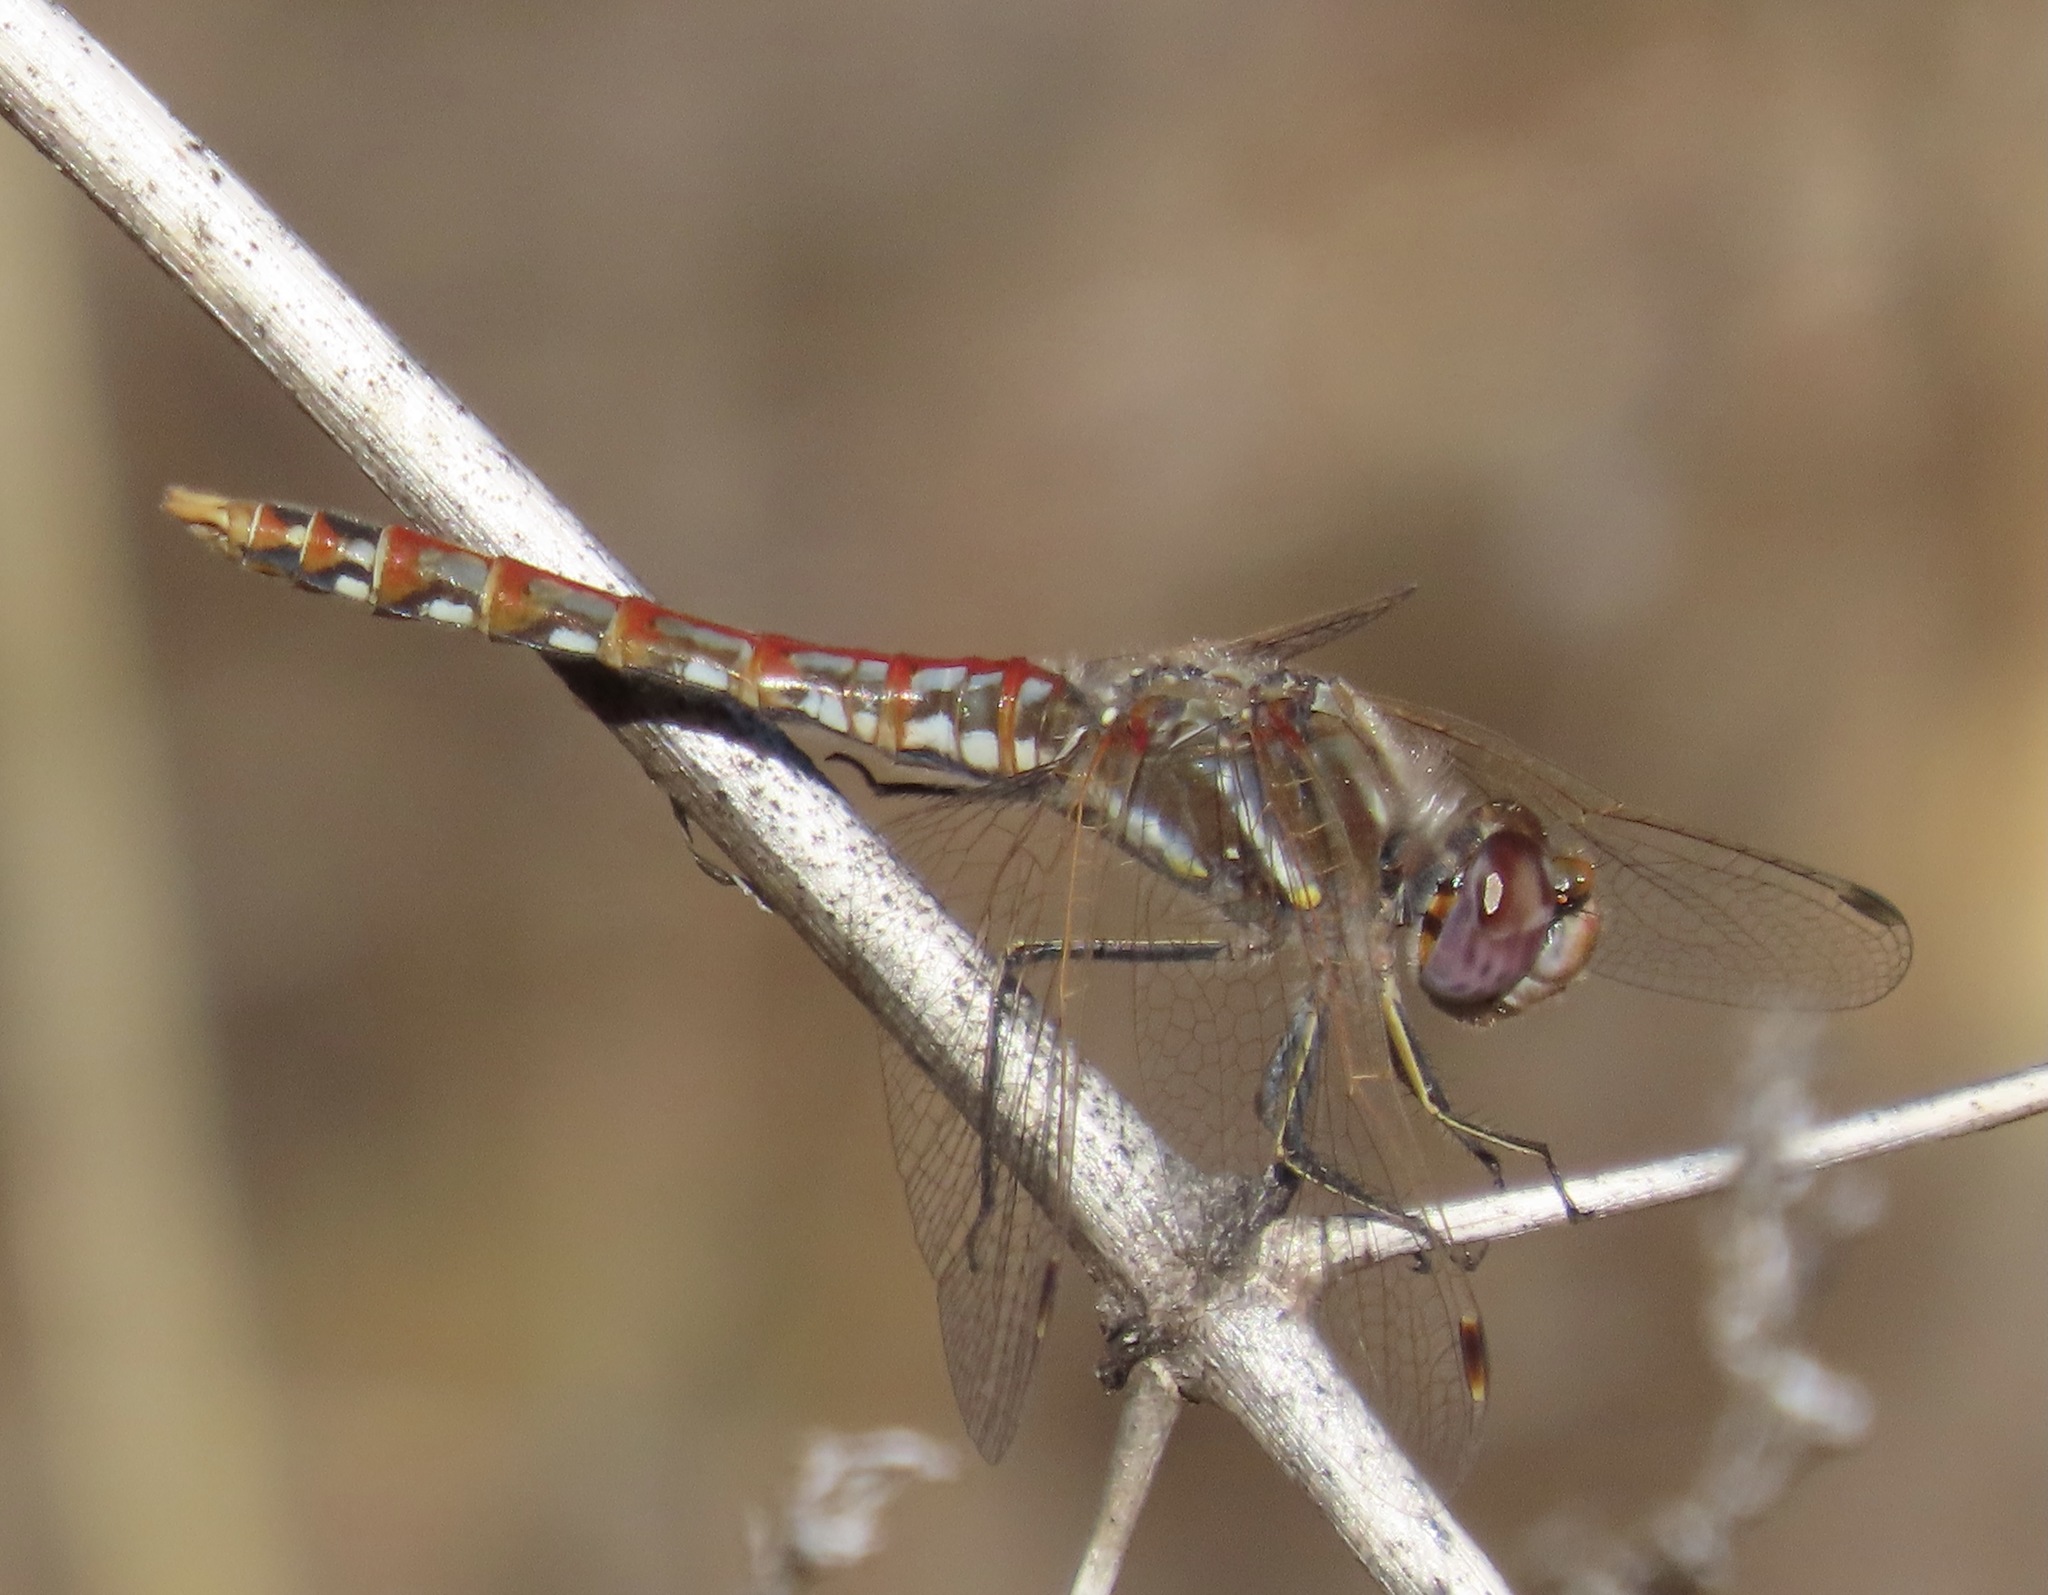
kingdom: Animalia
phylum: Arthropoda
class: Insecta
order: Odonata
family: Libellulidae
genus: Sympetrum
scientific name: Sympetrum corruptum
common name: Variegated meadowhawk
